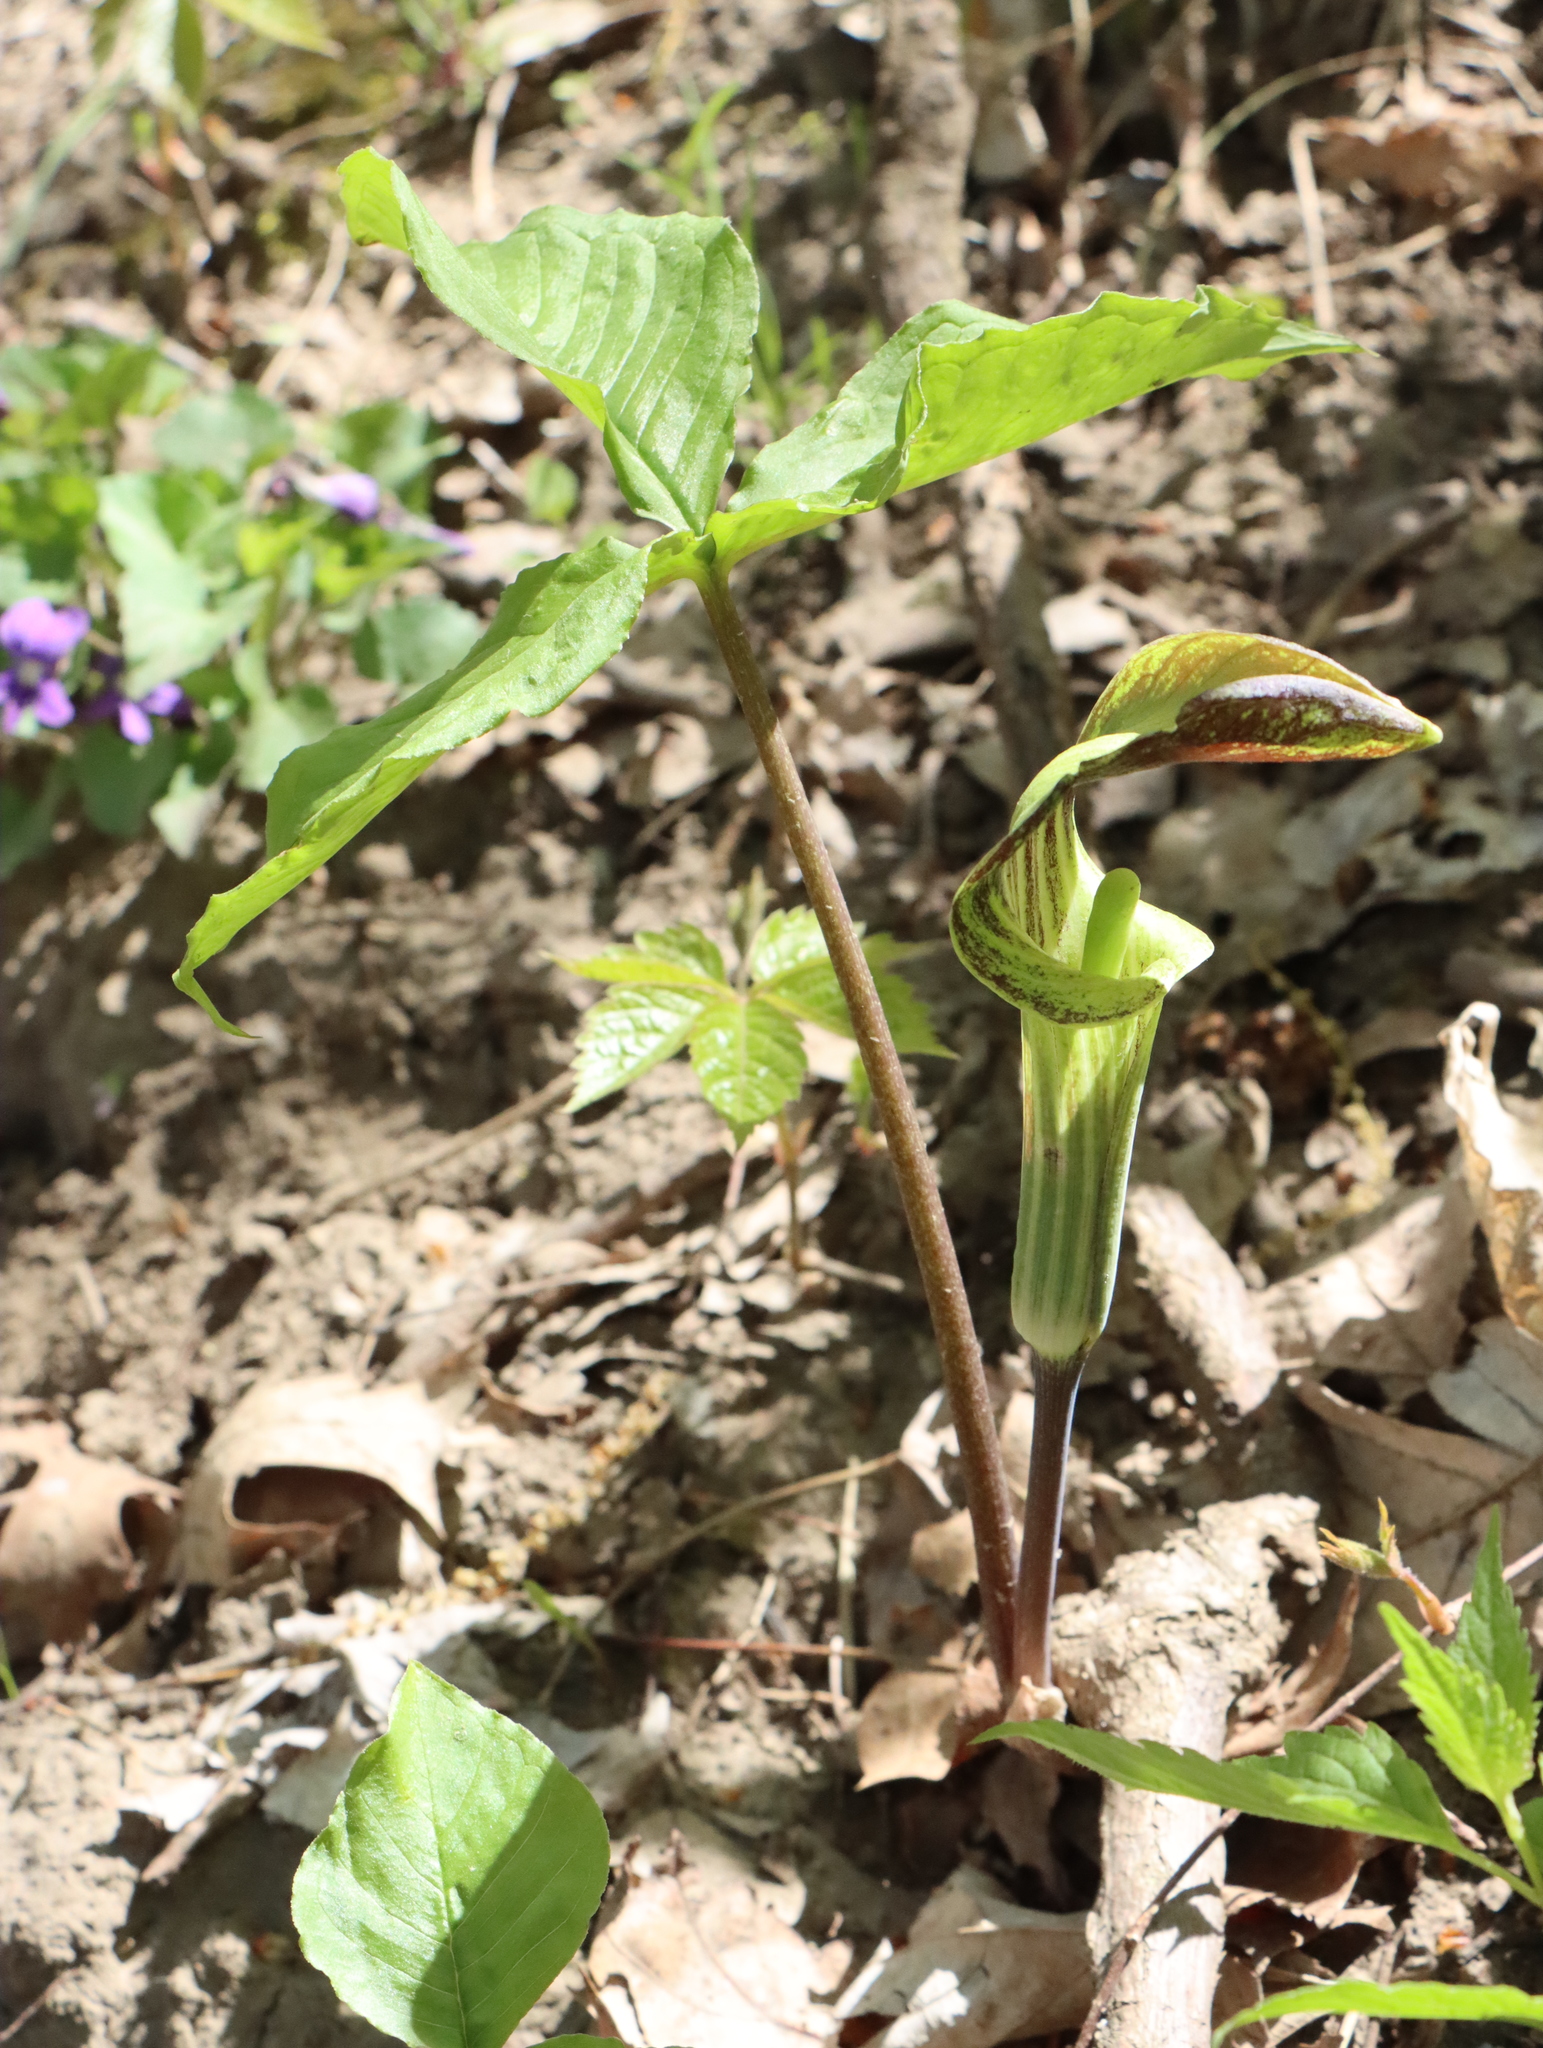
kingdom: Plantae
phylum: Tracheophyta
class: Liliopsida
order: Alismatales
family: Araceae
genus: Arisaema
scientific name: Arisaema triphyllum
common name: Jack-in-the-pulpit
